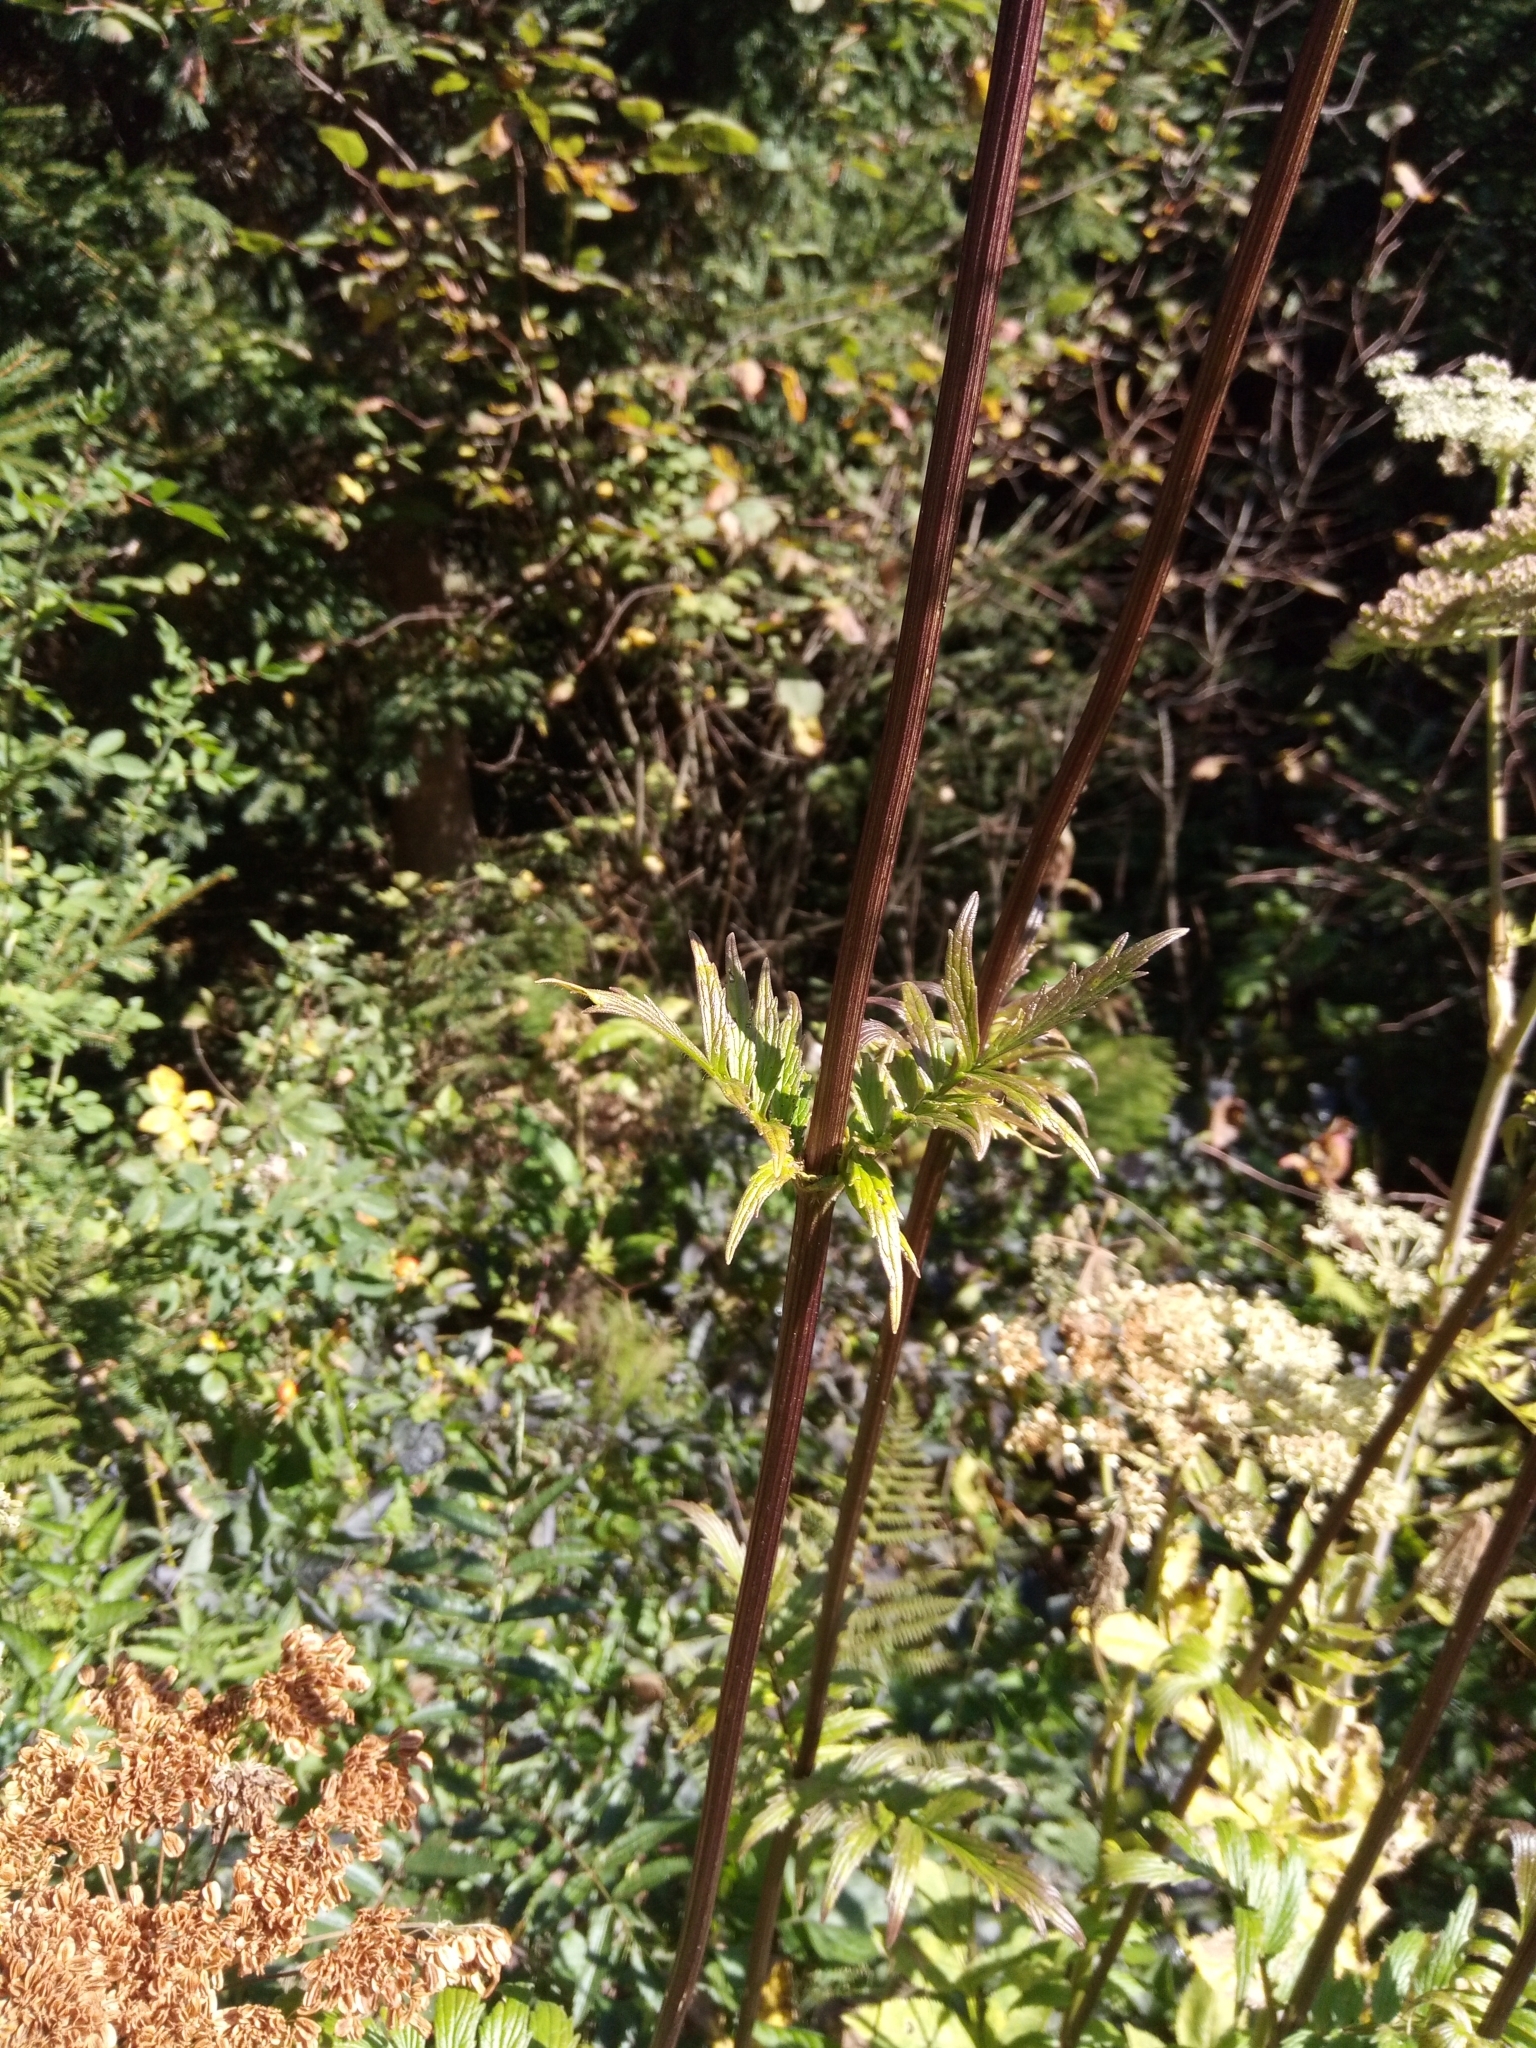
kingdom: Plantae
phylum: Tracheophyta
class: Magnoliopsida
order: Dipsacales
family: Caprifoliaceae
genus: Valeriana
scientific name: Valeriana
